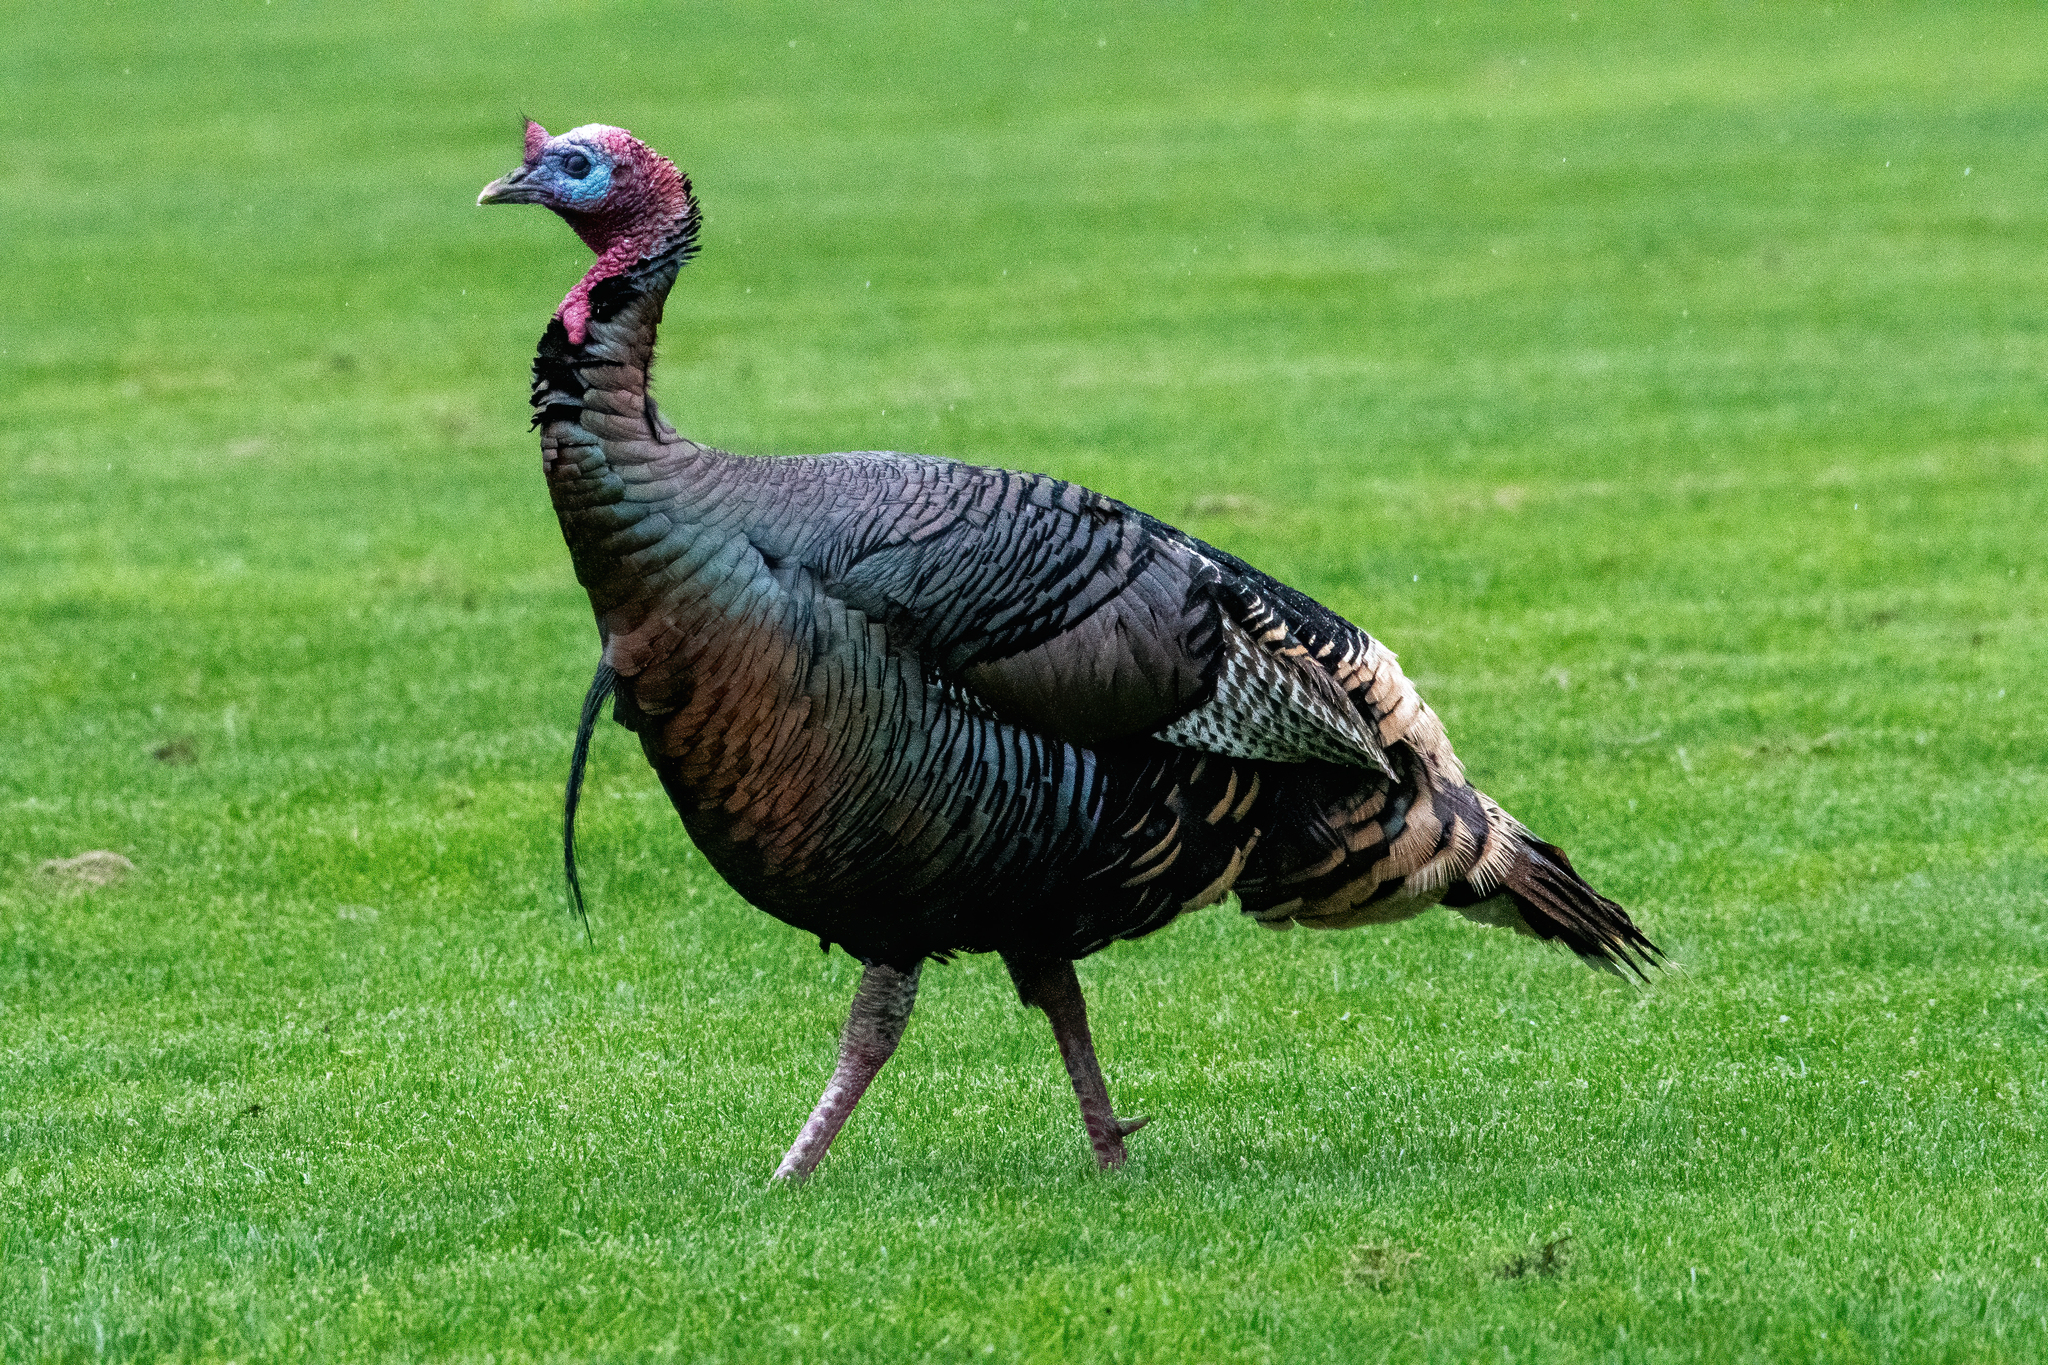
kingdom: Animalia
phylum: Chordata
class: Aves
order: Galliformes
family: Phasianidae
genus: Meleagris
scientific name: Meleagris gallopavo
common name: Wild turkey
